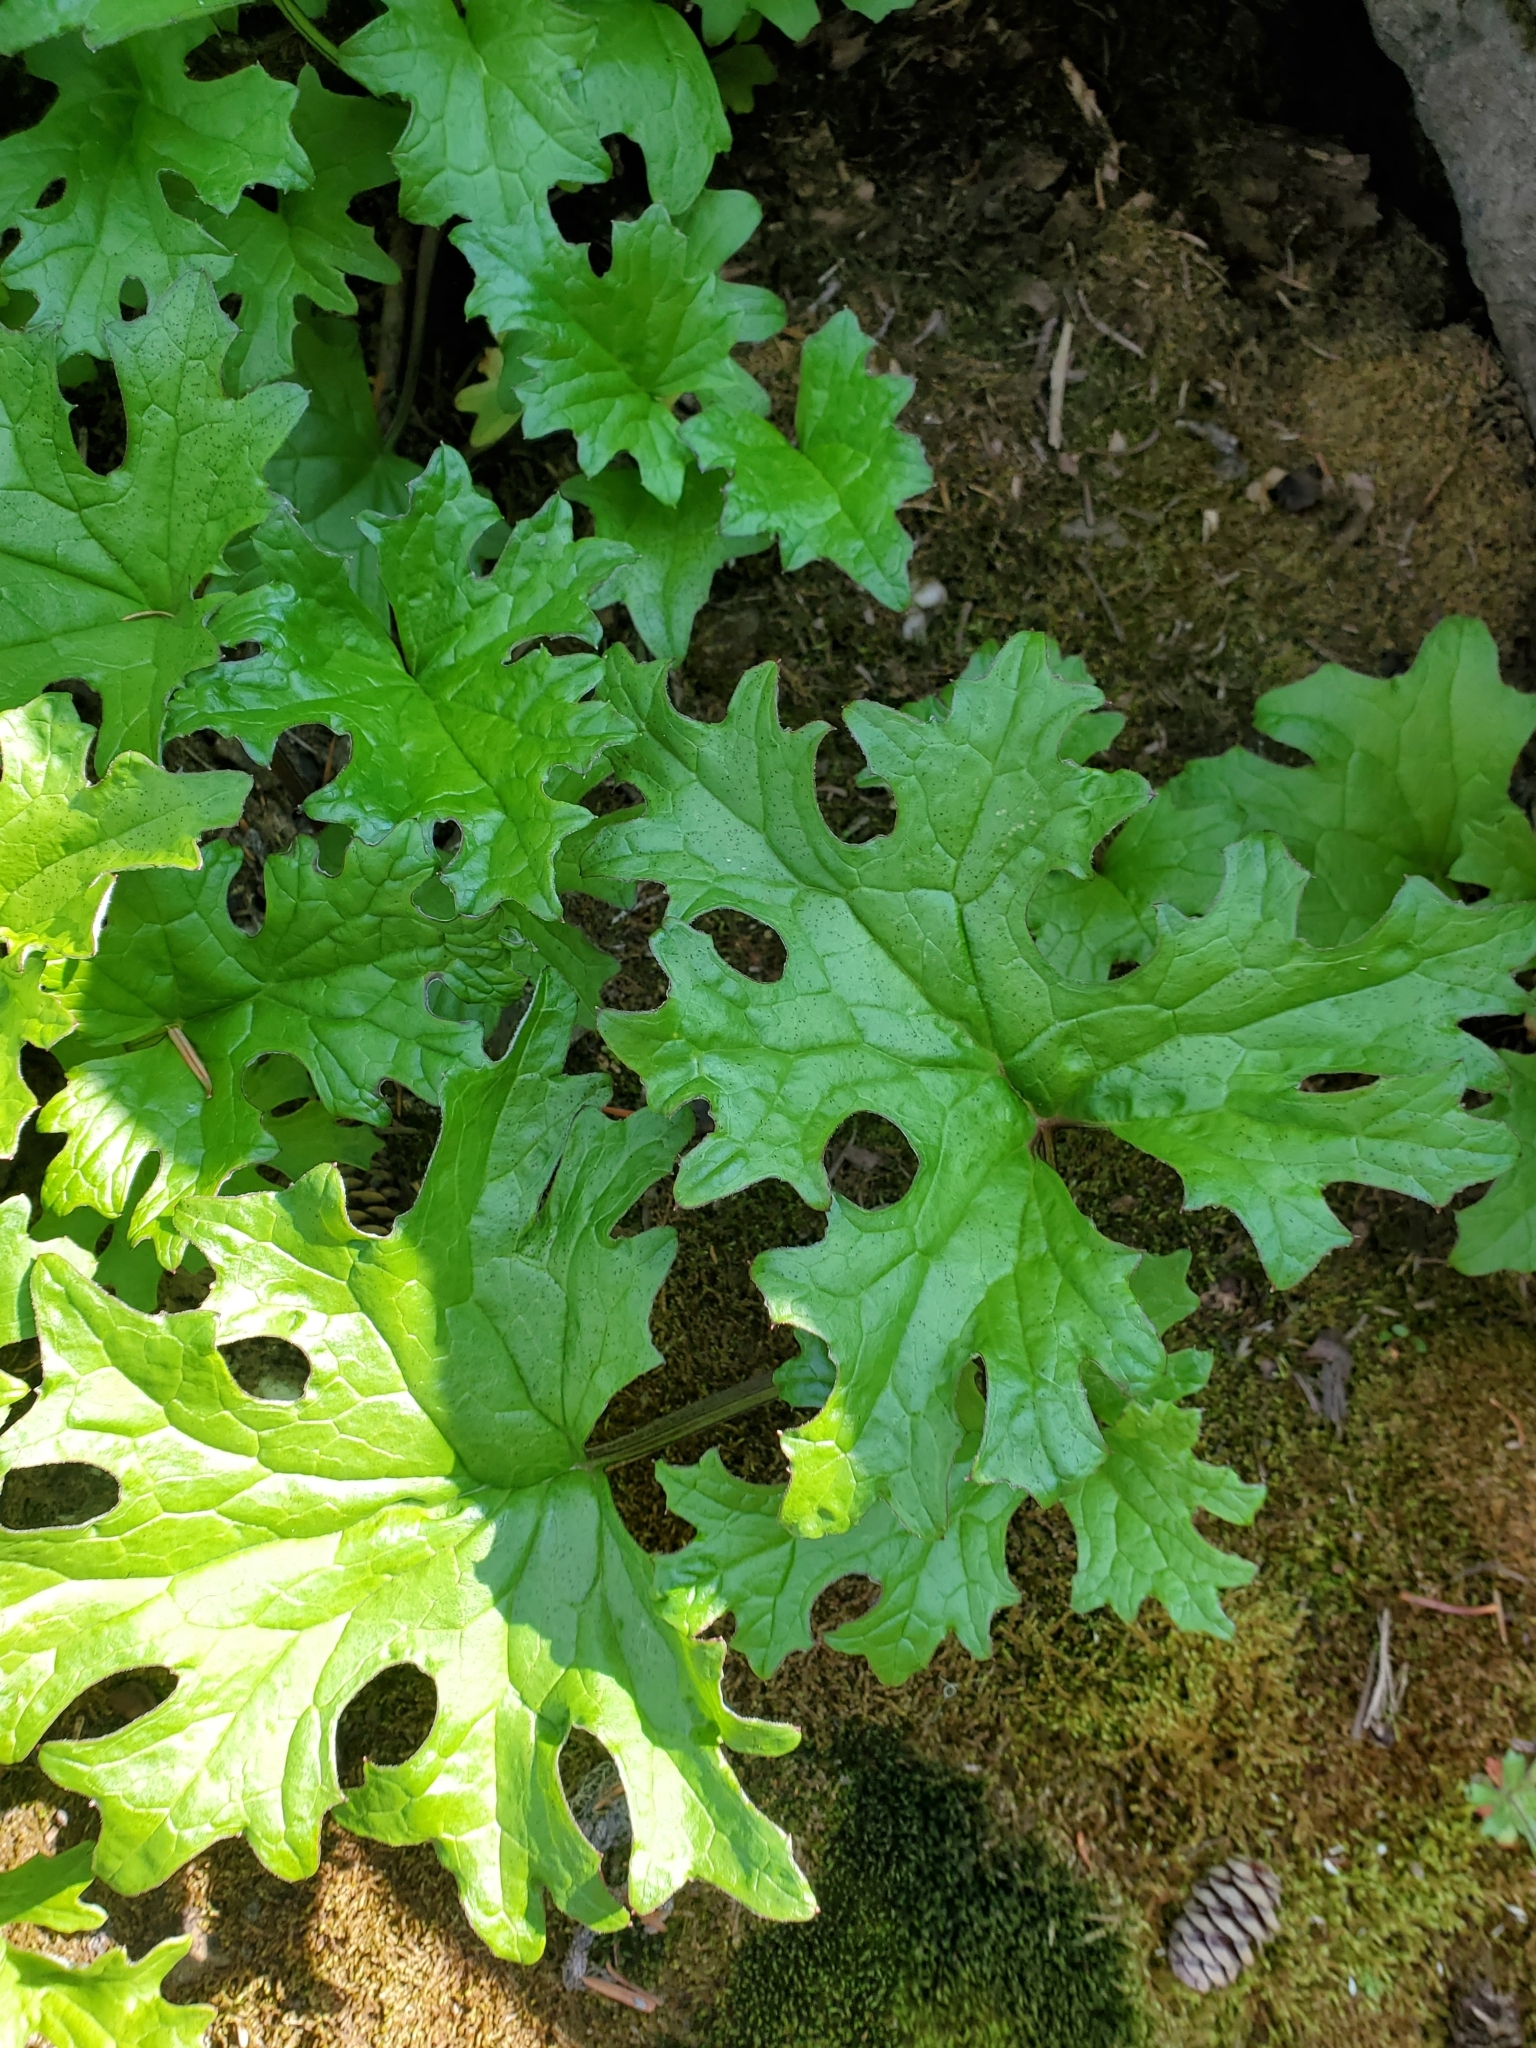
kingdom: Plantae
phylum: Tracheophyta
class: Magnoliopsida
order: Asterales
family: Asteraceae
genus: Petasites
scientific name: Petasites frigidus
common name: Arctic butterbur
